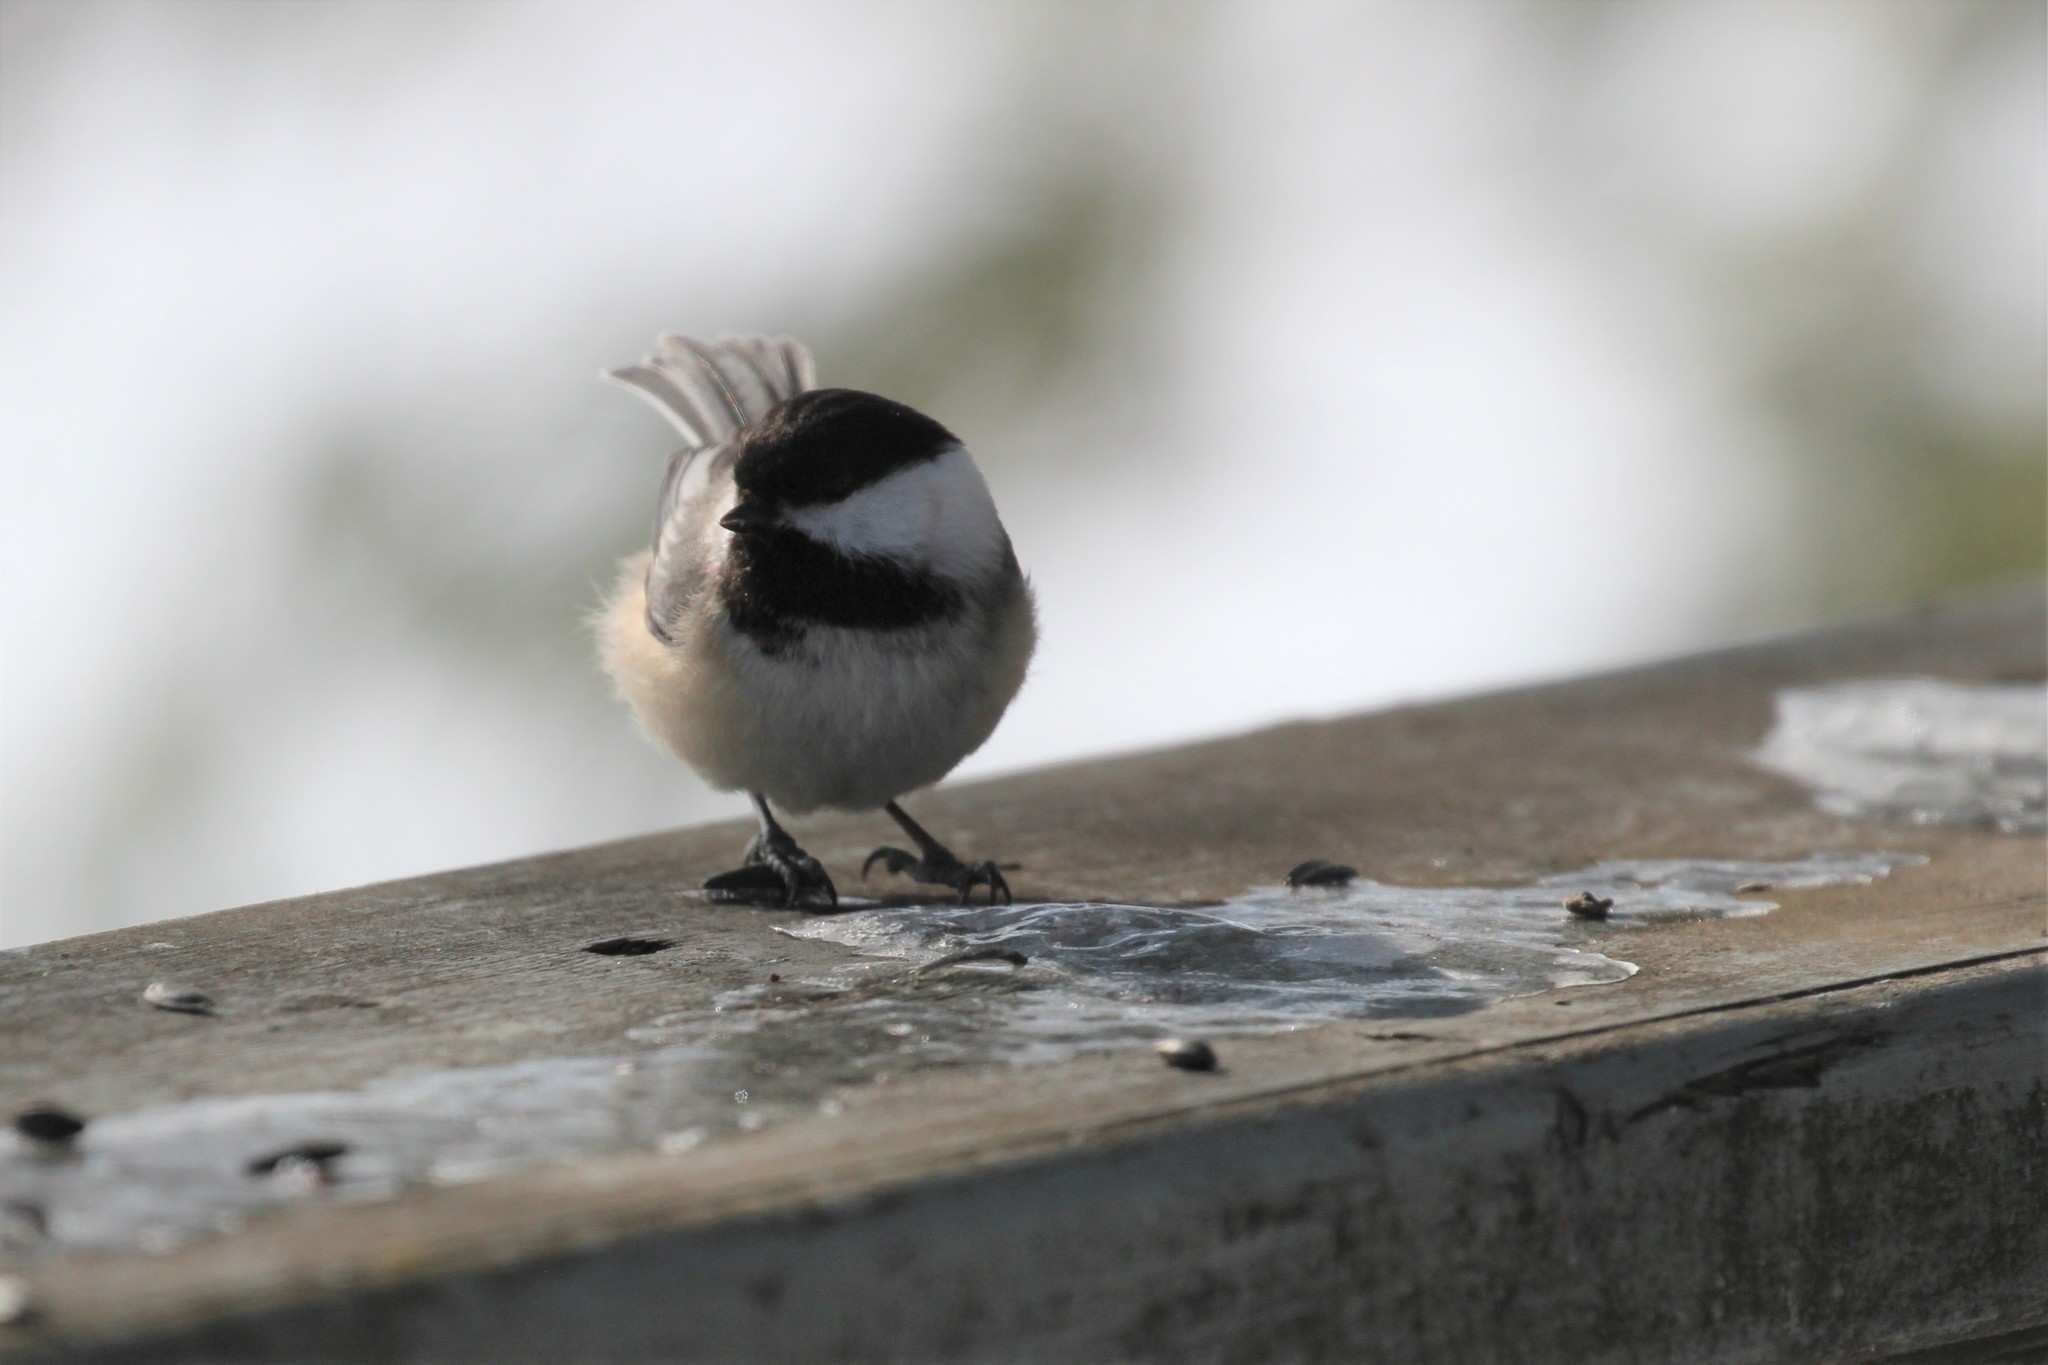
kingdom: Animalia
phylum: Chordata
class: Aves
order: Passeriformes
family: Paridae
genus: Poecile
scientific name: Poecile atricapillus
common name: Black-capped chickadee
